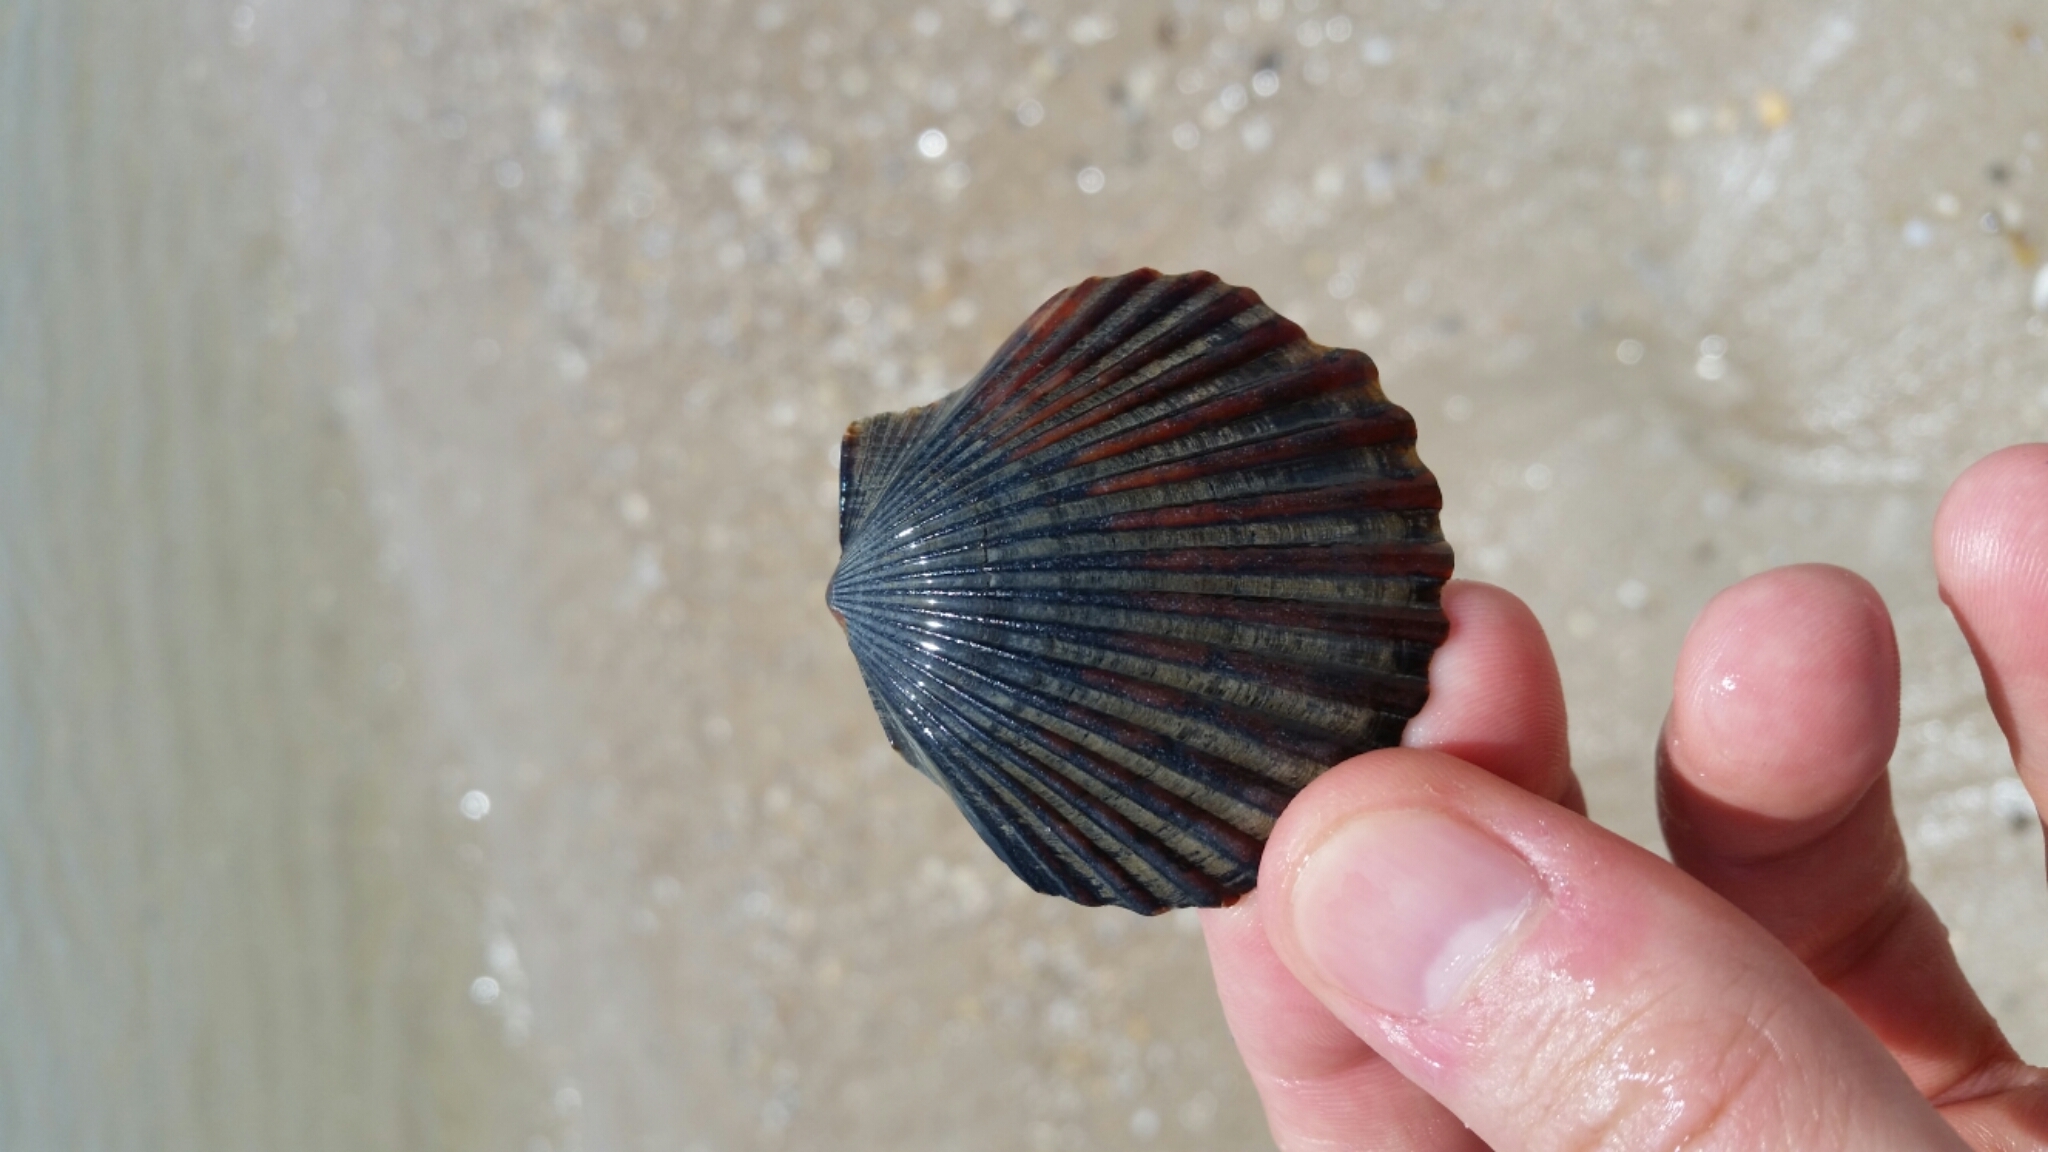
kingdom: Animalia
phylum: Mollusca
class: Bivalvia
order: Pectinida
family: Pectinidae
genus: Argopecten
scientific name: Argopecten irradians
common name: Atlantic bay scallop
